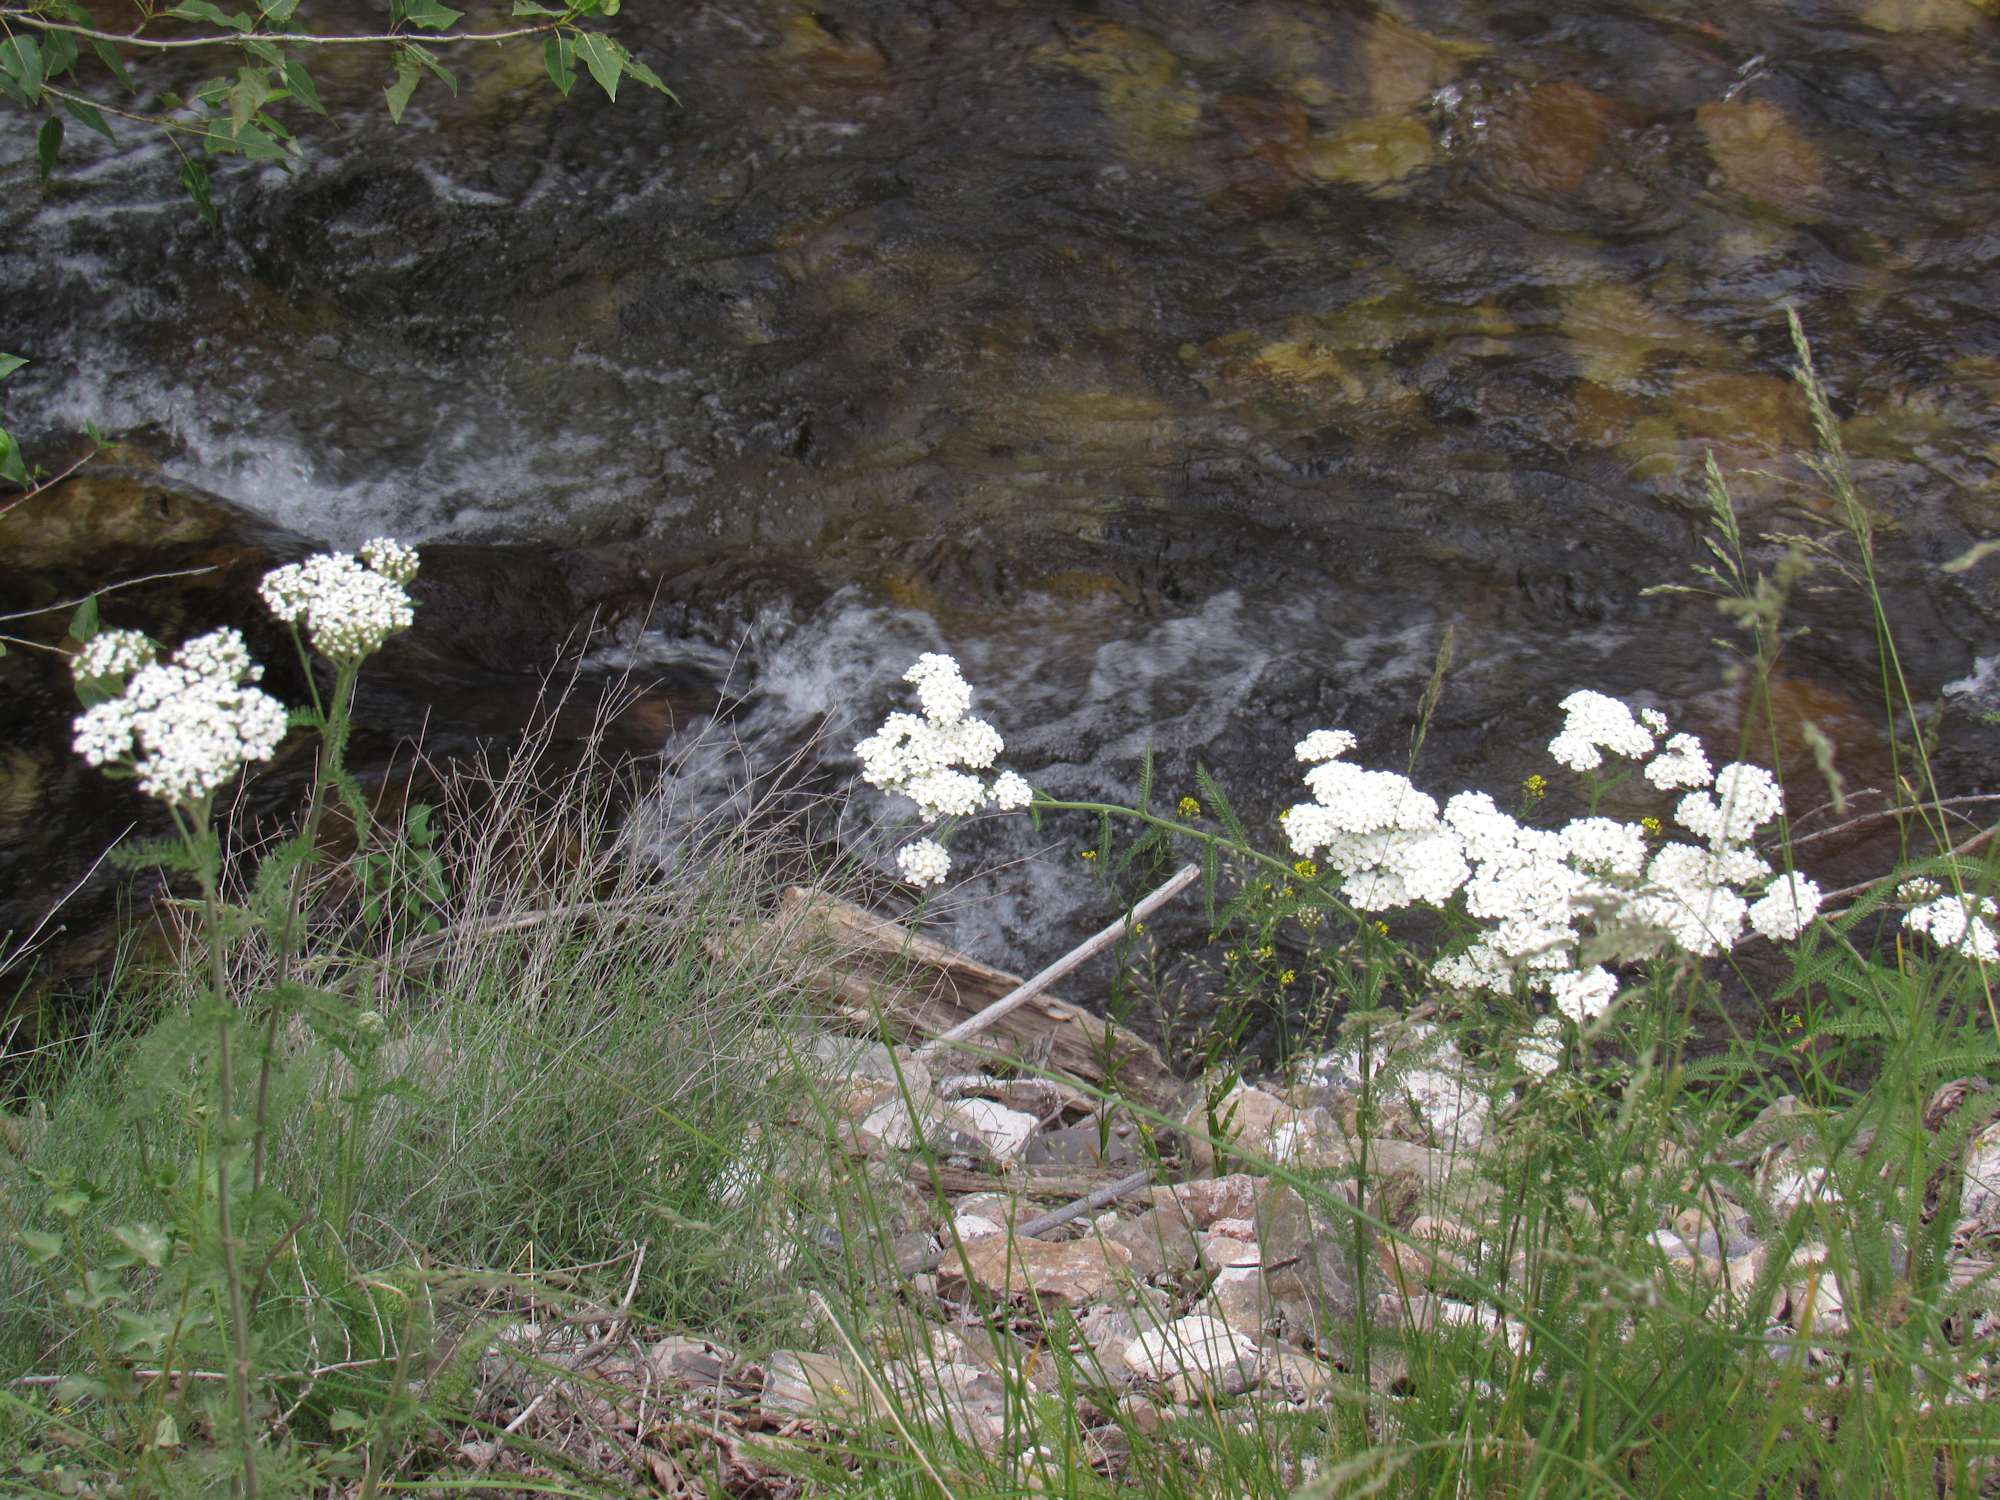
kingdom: Plantae
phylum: Tracheophyta
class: Magnoliopsida
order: Asterales
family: Asteraceae
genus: Achillea
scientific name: Achillea millefolium
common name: Yarrow
